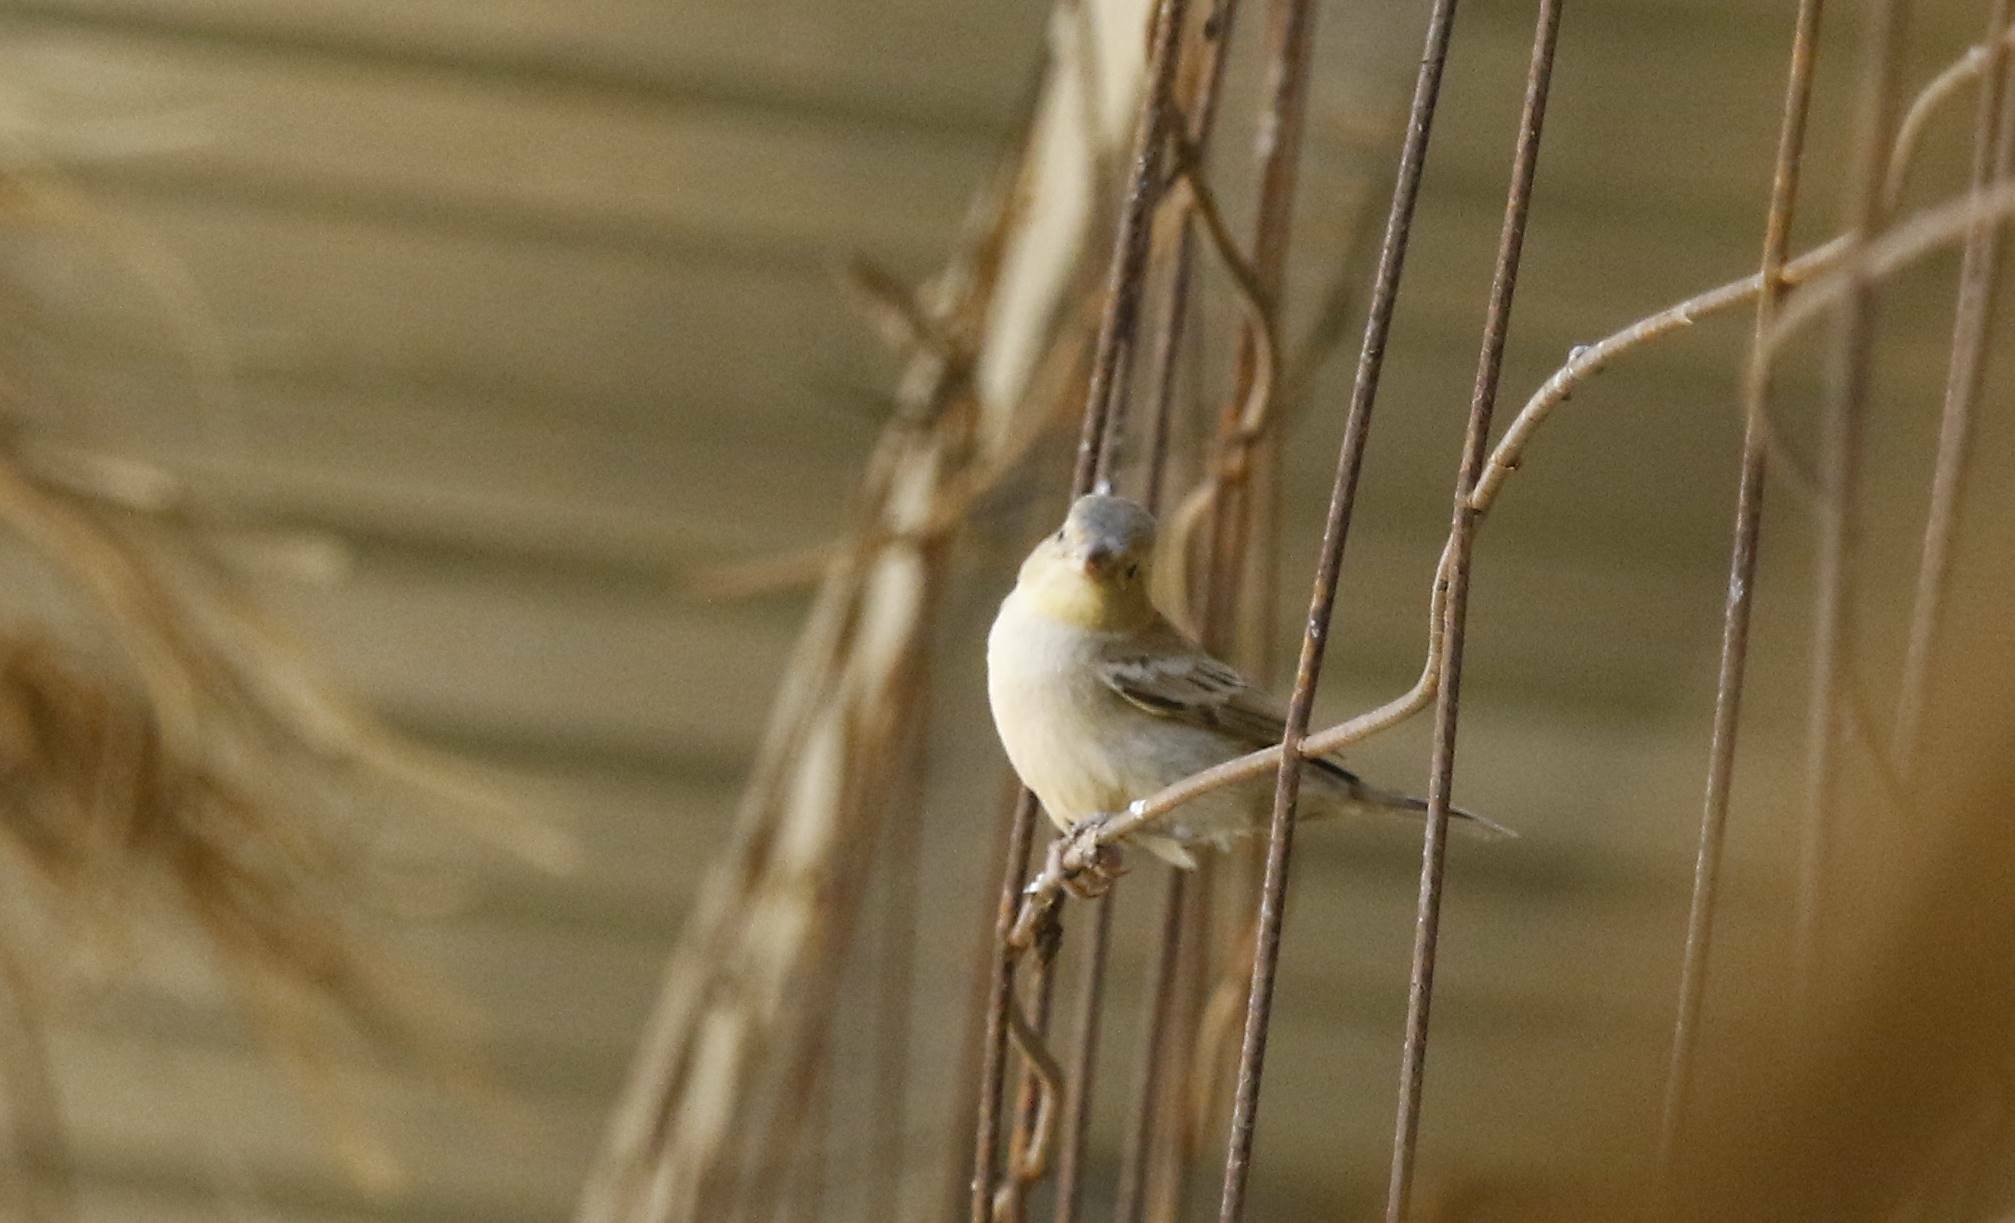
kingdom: Animalia
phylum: Chordata
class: Aves
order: Passeriformes
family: Passeridae
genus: Passer
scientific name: Passer luteus
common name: Sudan golden sparrow
